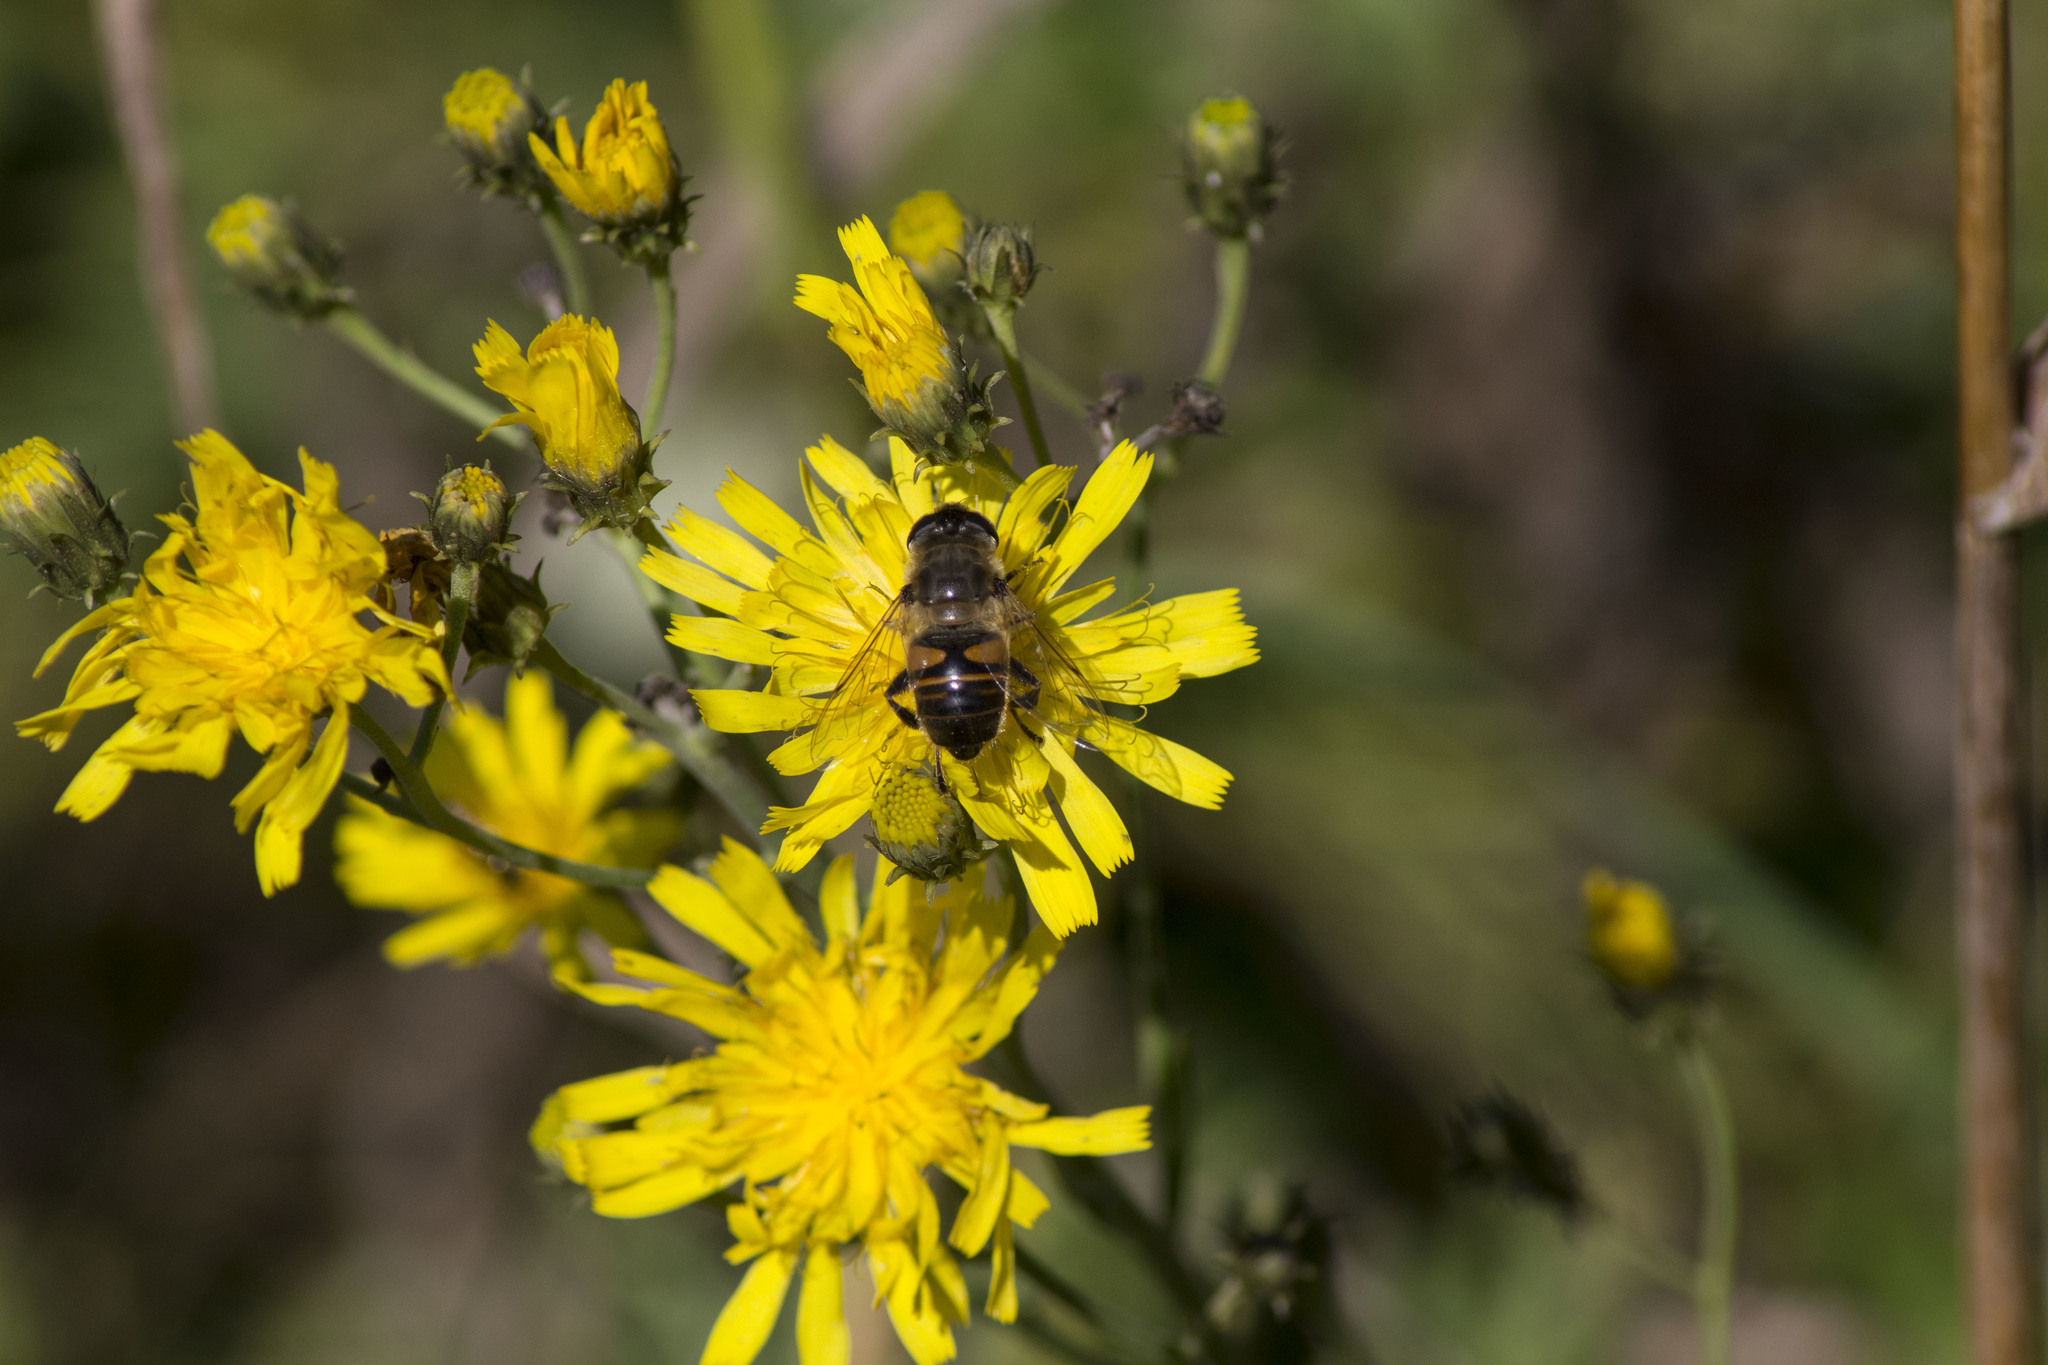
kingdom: Animalia
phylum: Arthropoda
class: Insecta
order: Diptera
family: Syrphidae
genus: Eristalis
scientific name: Eristalis tenax
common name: Drone fly
